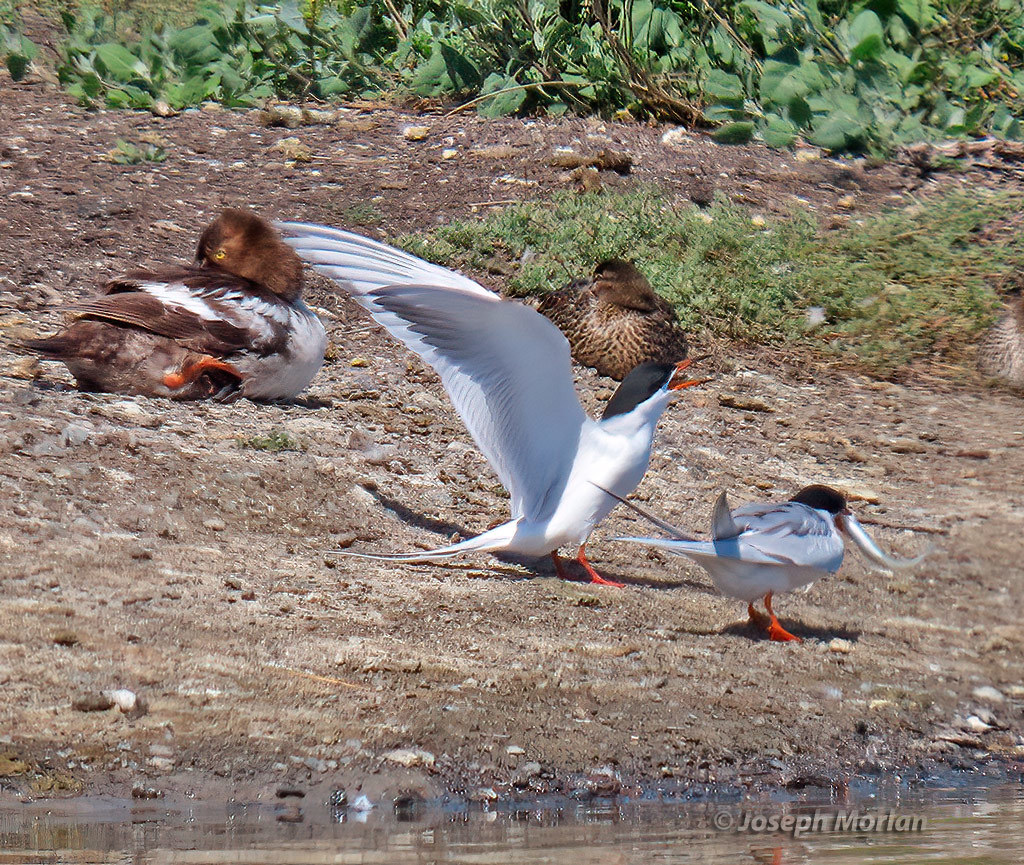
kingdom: Animalia
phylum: Chordata
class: Aves
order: Charadriiformes
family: Laridae
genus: Sterna
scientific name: Sterna forsteri
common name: Forster's tern
